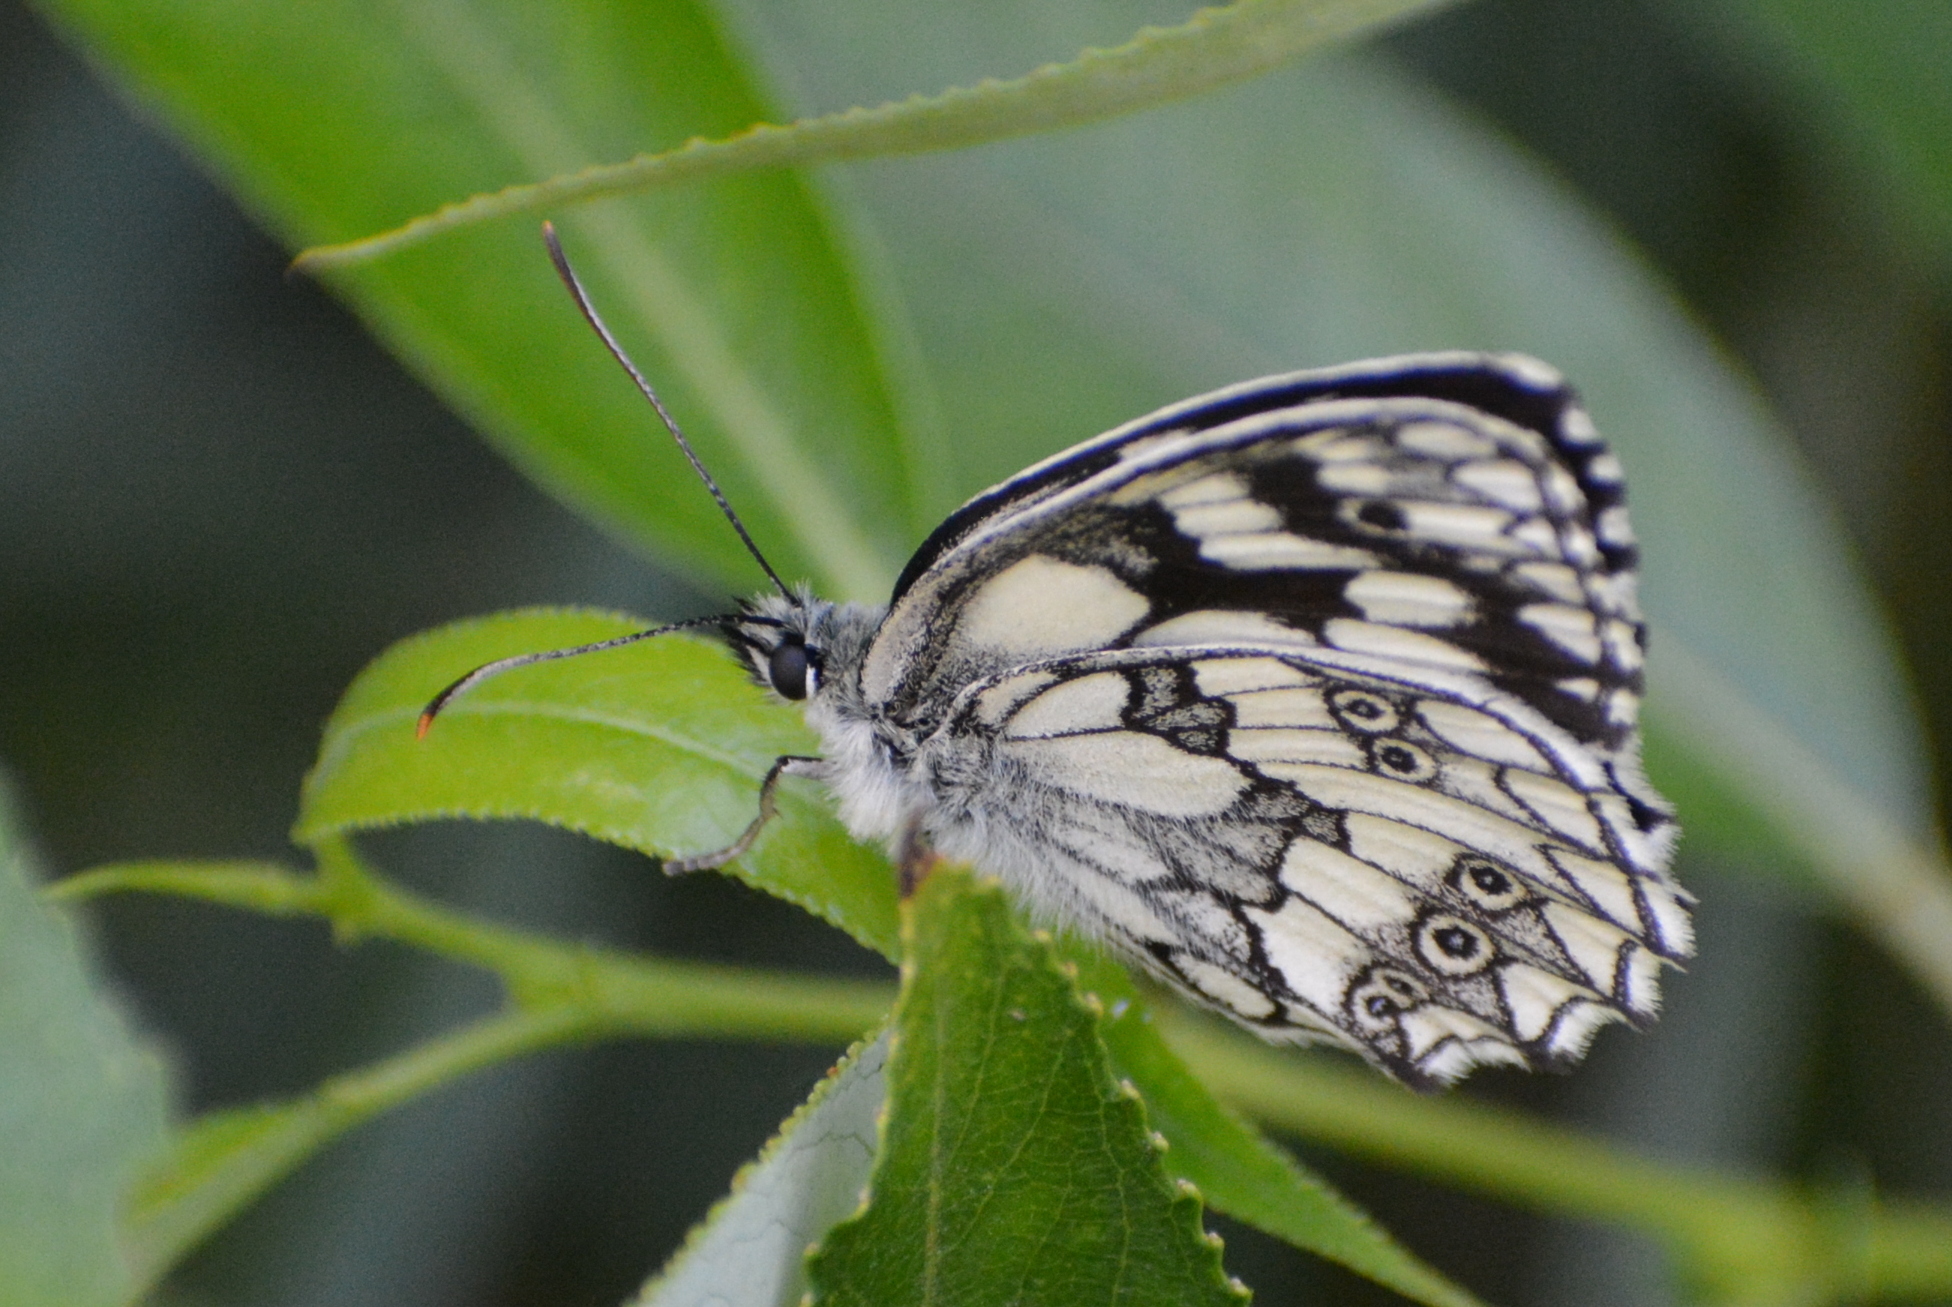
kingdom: Animalia
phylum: Arthropoda
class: Insecta
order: Lepidoptera
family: Nymphalidae
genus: Melanargia
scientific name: Melanargia galathea
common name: Marbled white
